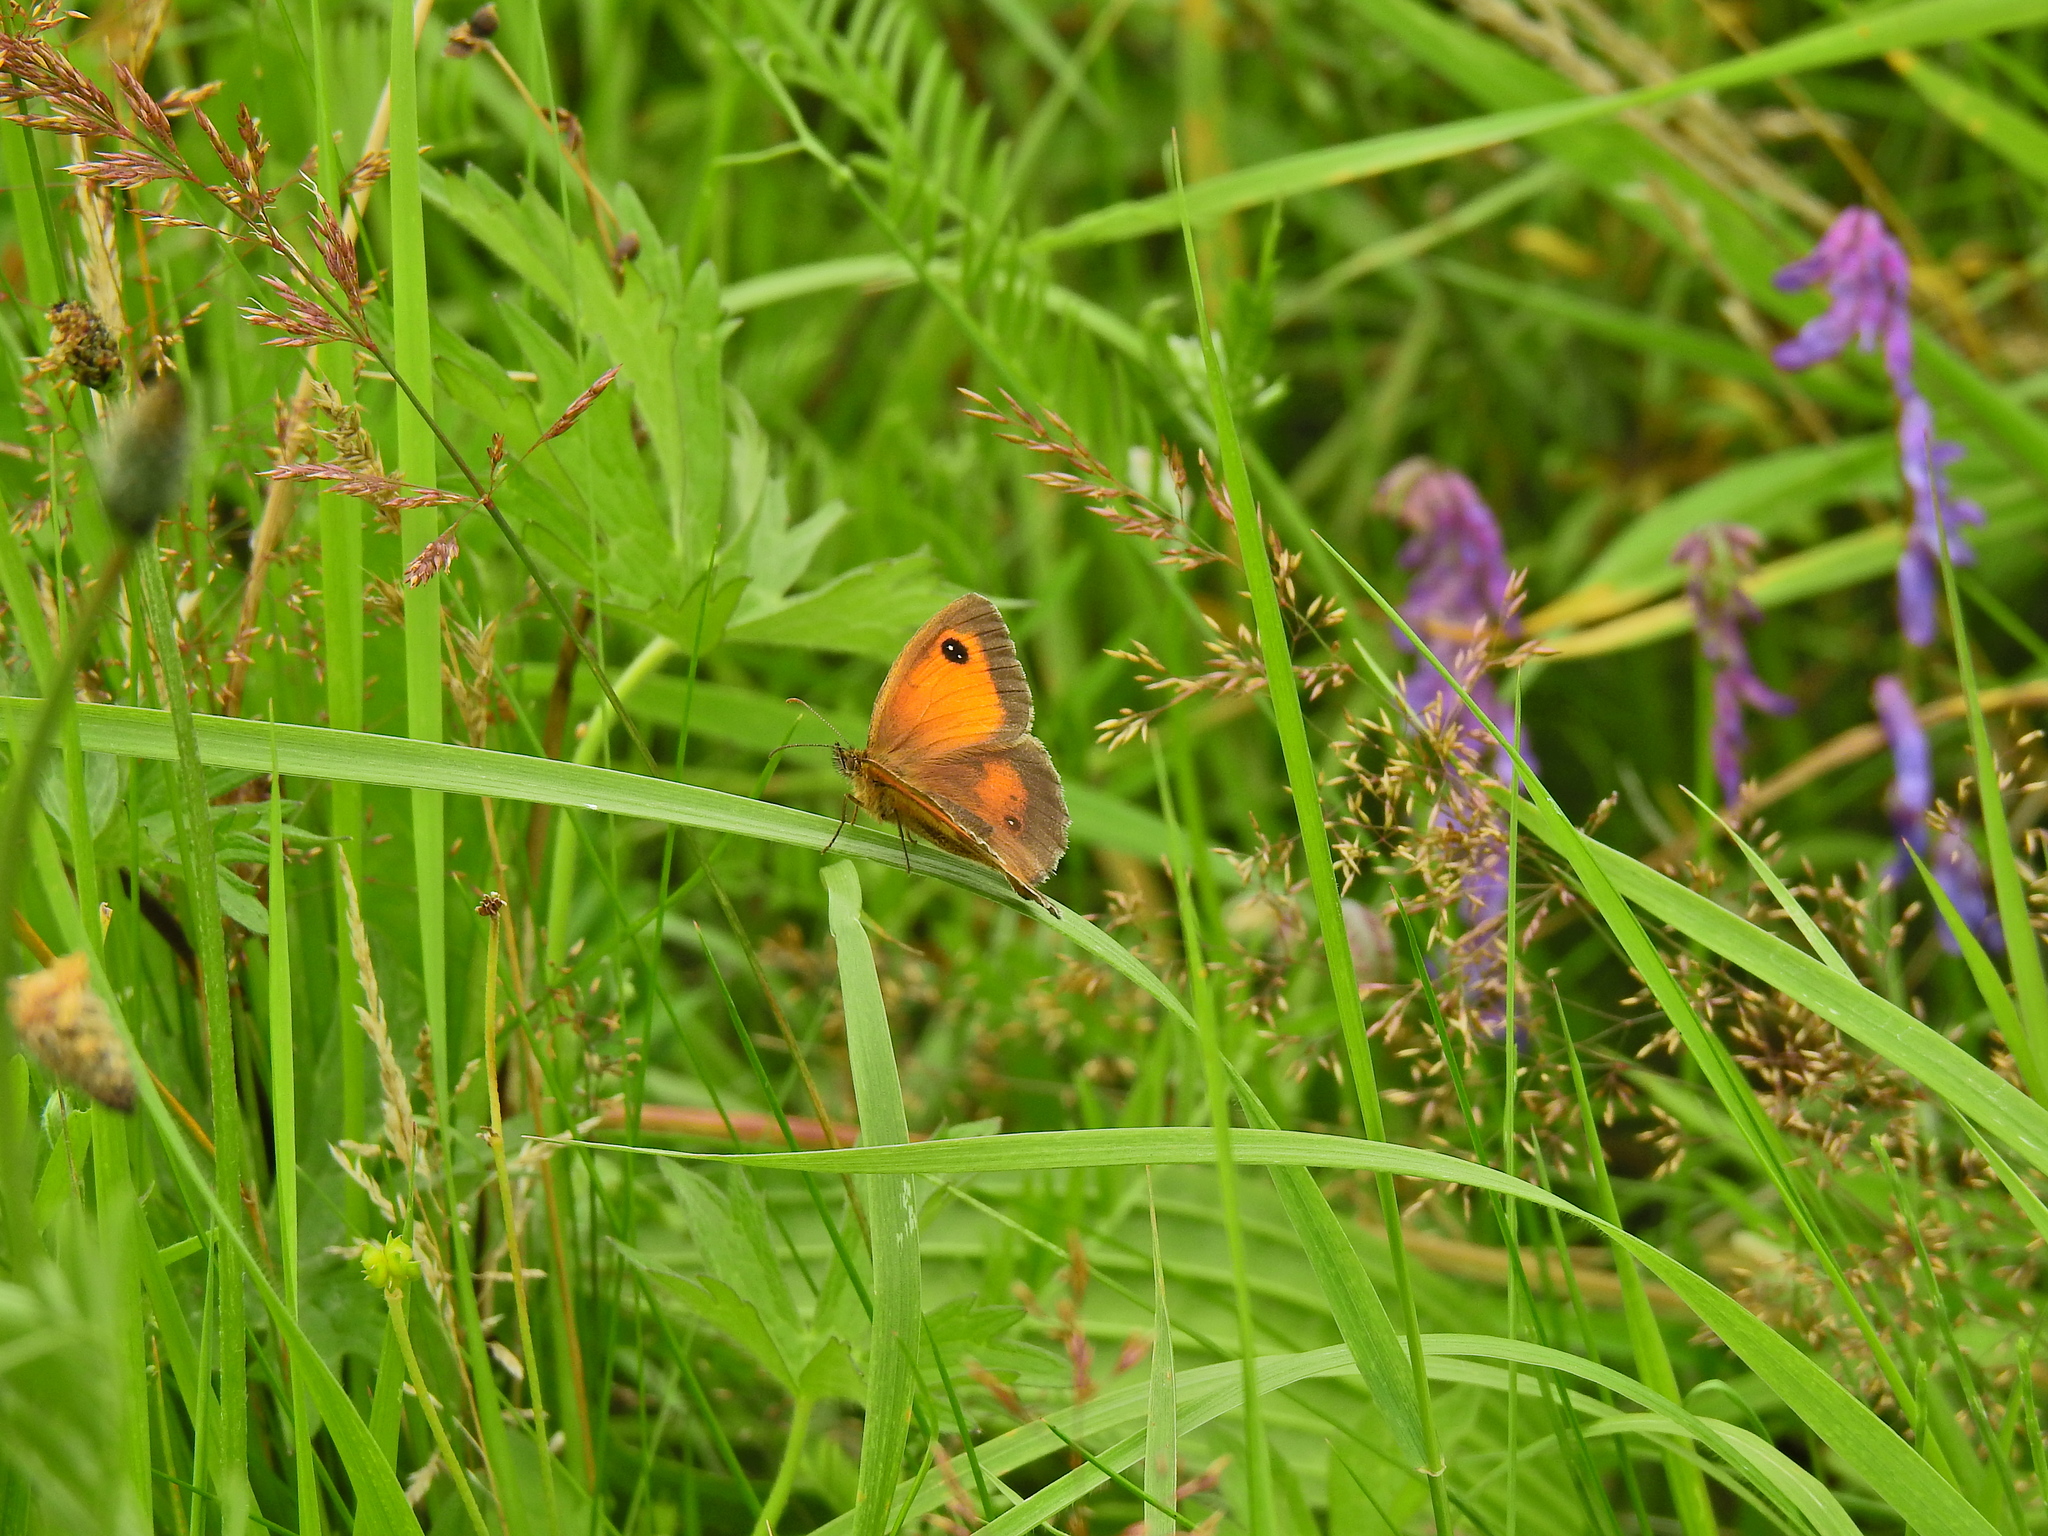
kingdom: Animalia
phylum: Arthropoda
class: Insecta
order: Lepidoptera
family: Nymphalidae
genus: Pyronia
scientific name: Pyronia tithonus
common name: Gatekeeper
